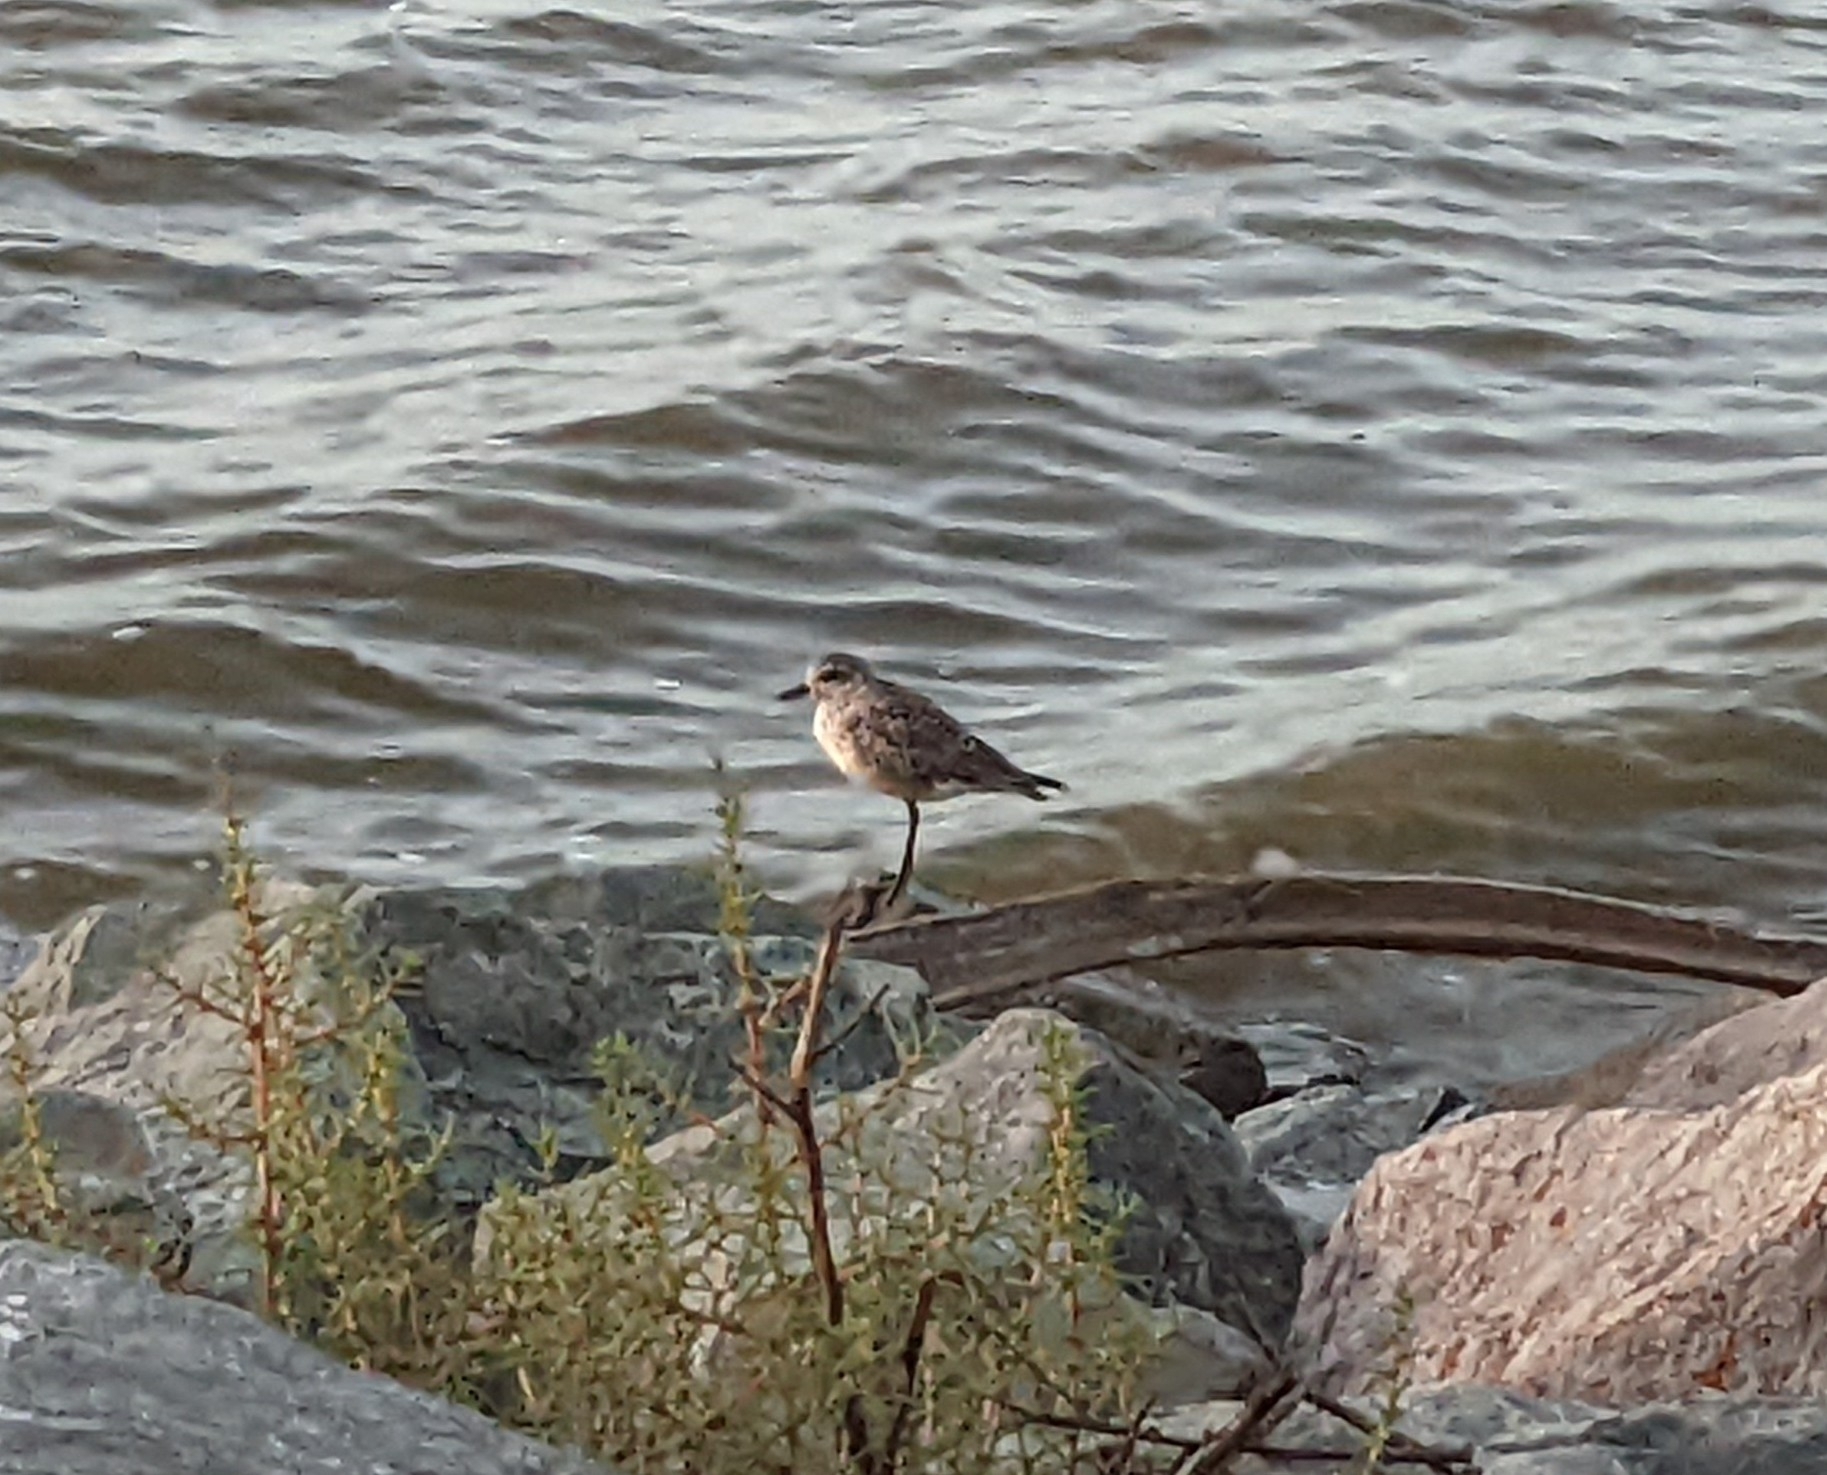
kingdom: Animalia
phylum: Chordata
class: Aves
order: Charadriiformes
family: Charadriidae
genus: Pluvialis
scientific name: Pluvialis squatarola
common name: Grey plover
